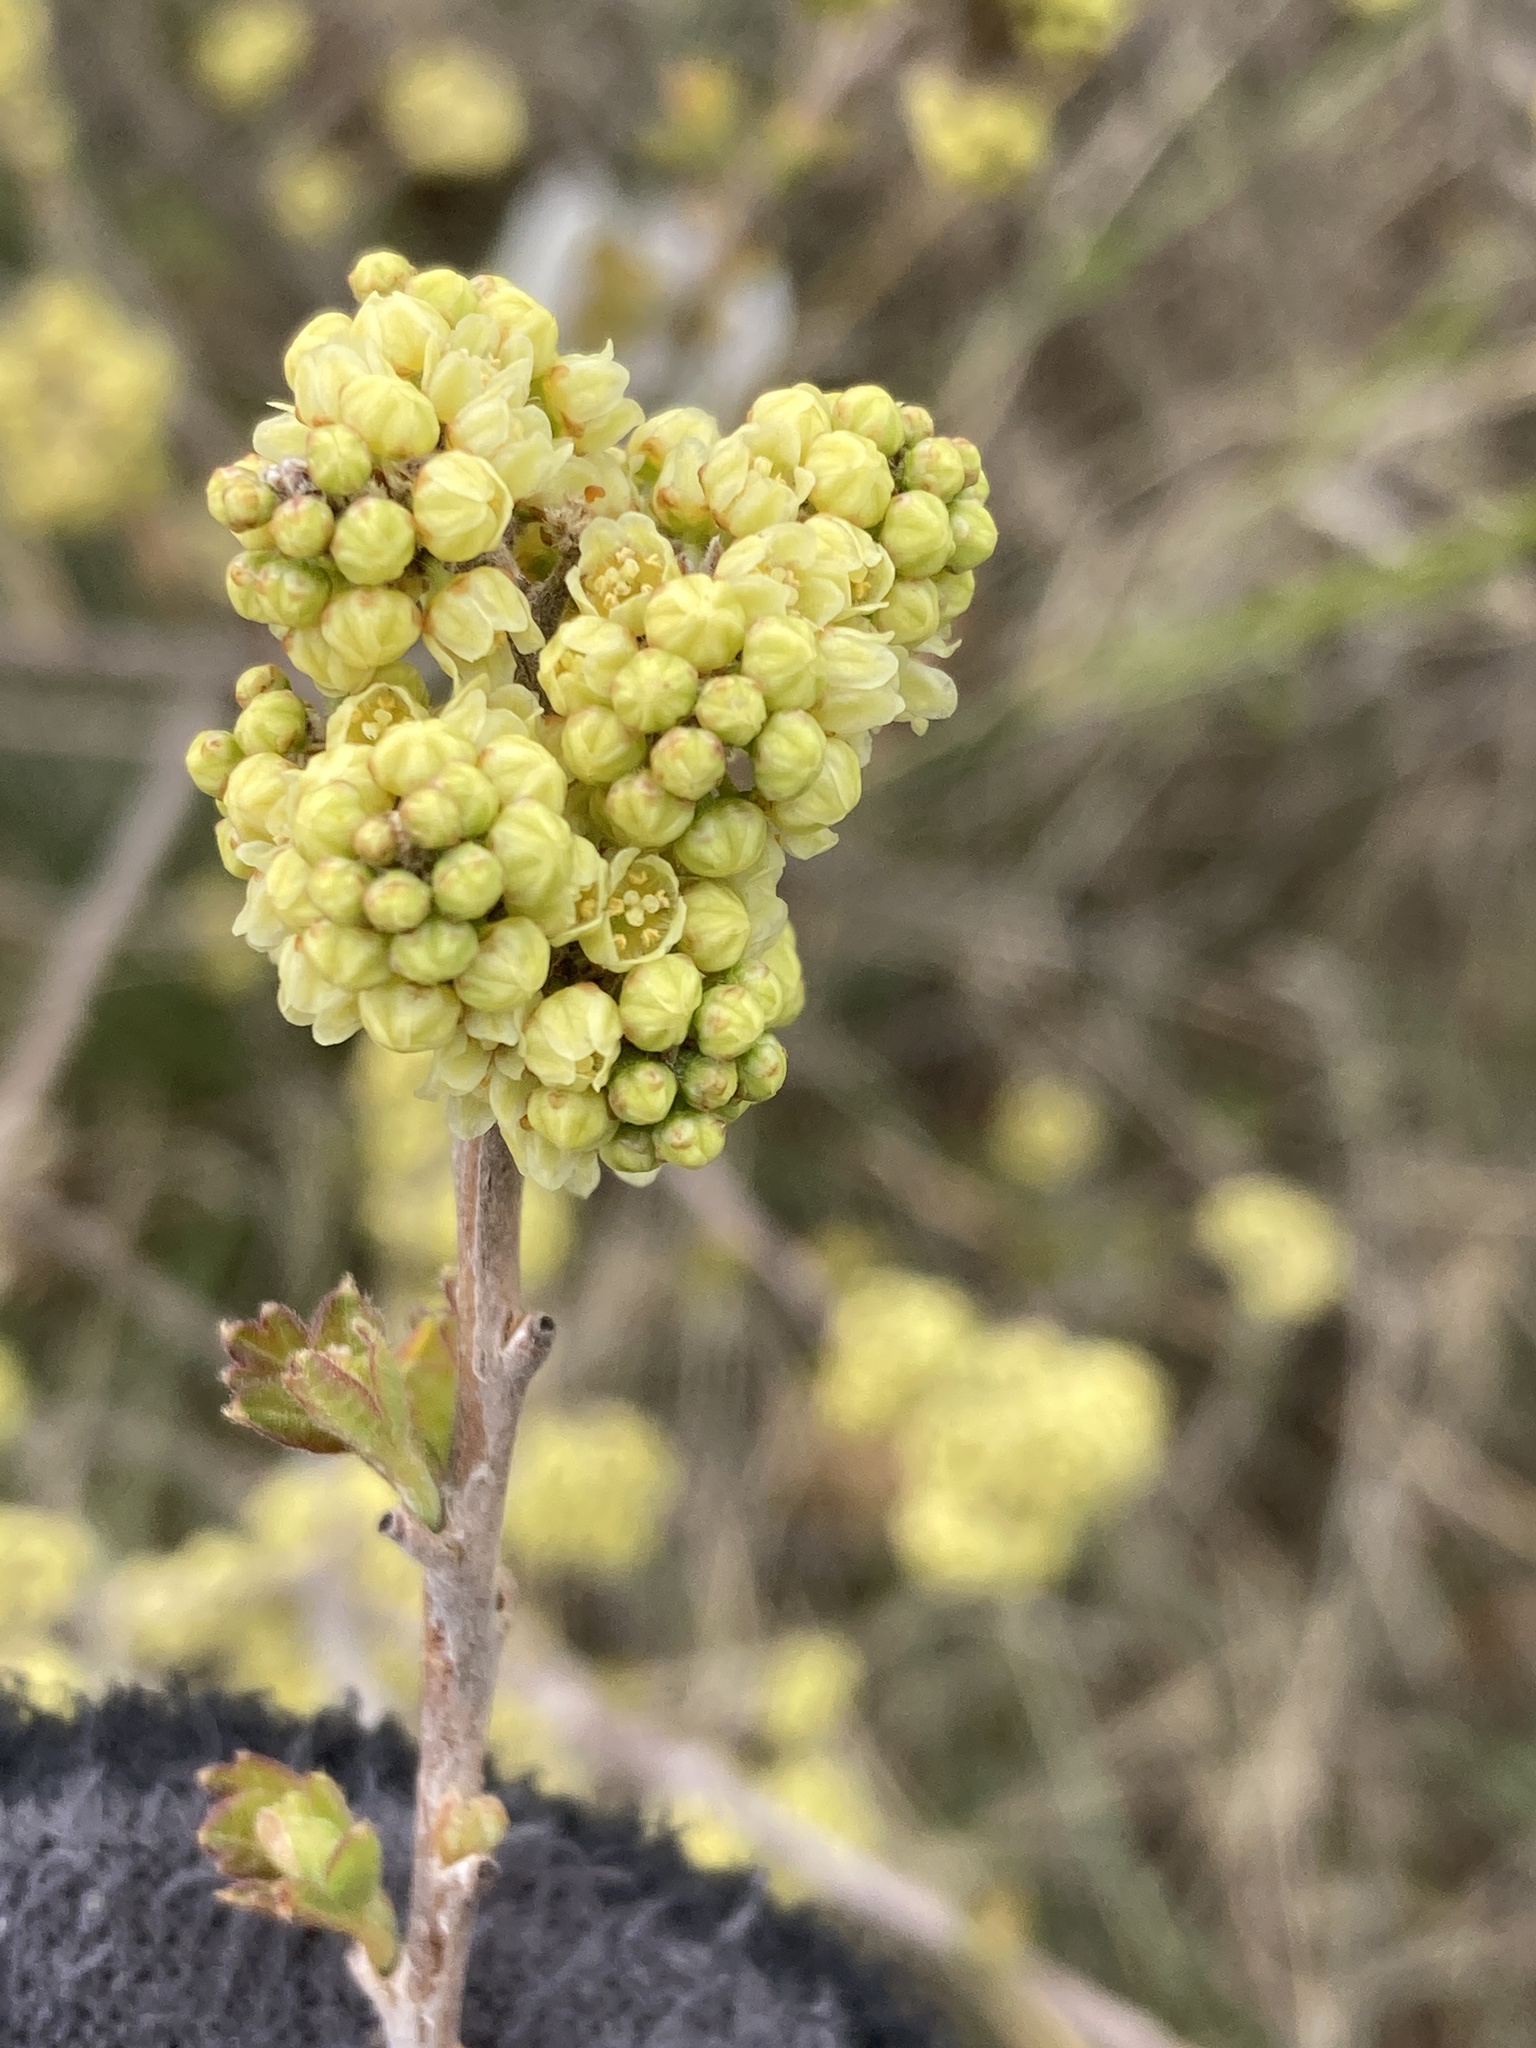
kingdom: Plantae
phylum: Tracheophyta
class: Magnoliopsida
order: Sapindales
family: Anacardiaceae
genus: Rhus
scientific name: Rhus aromatica
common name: Aromatic sumac
